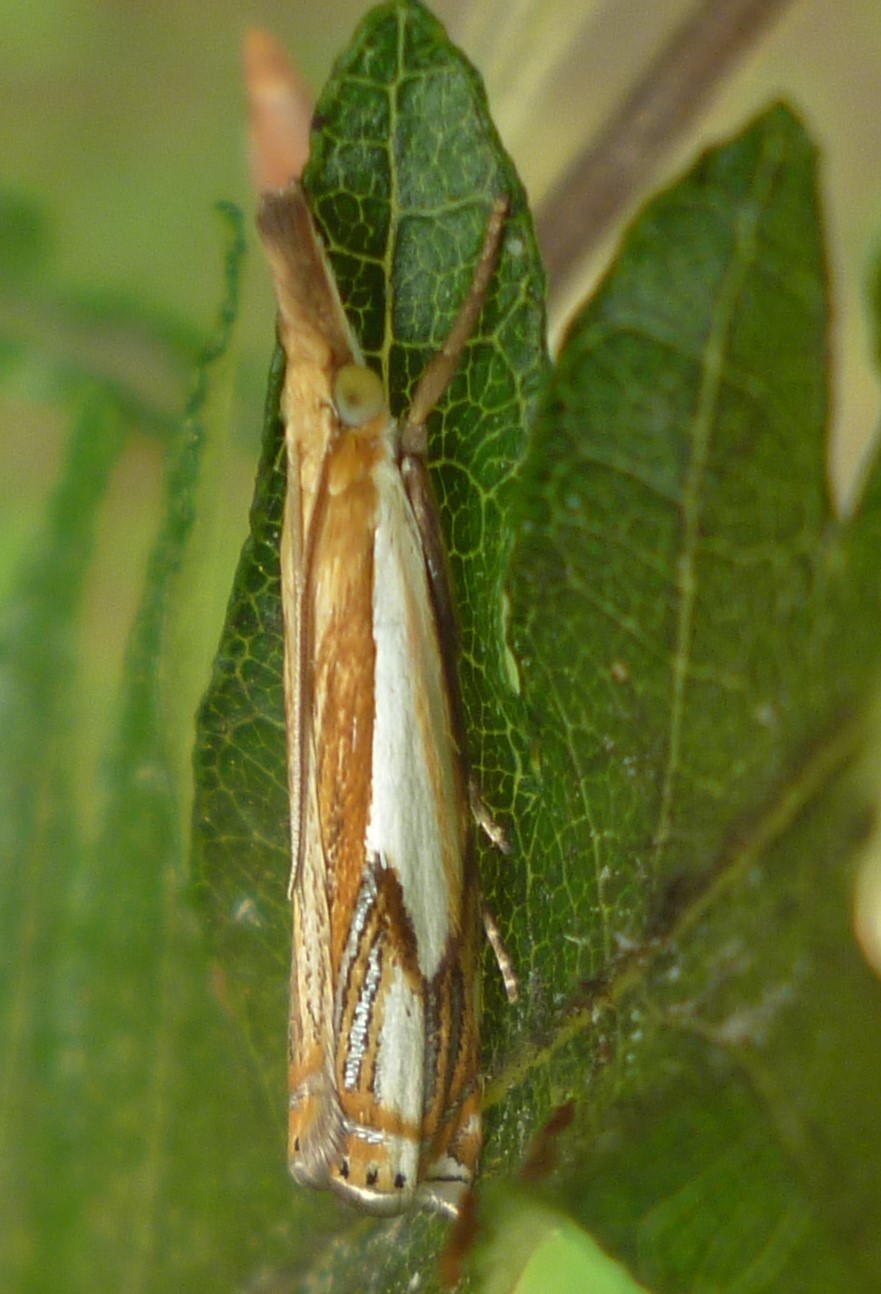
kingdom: Animalia
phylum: Arthropoda
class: Insecta
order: Lepidoptera
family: Crambidae
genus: Crambus
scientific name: Crambus agitatellus
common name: Double-banded grass-veneer
